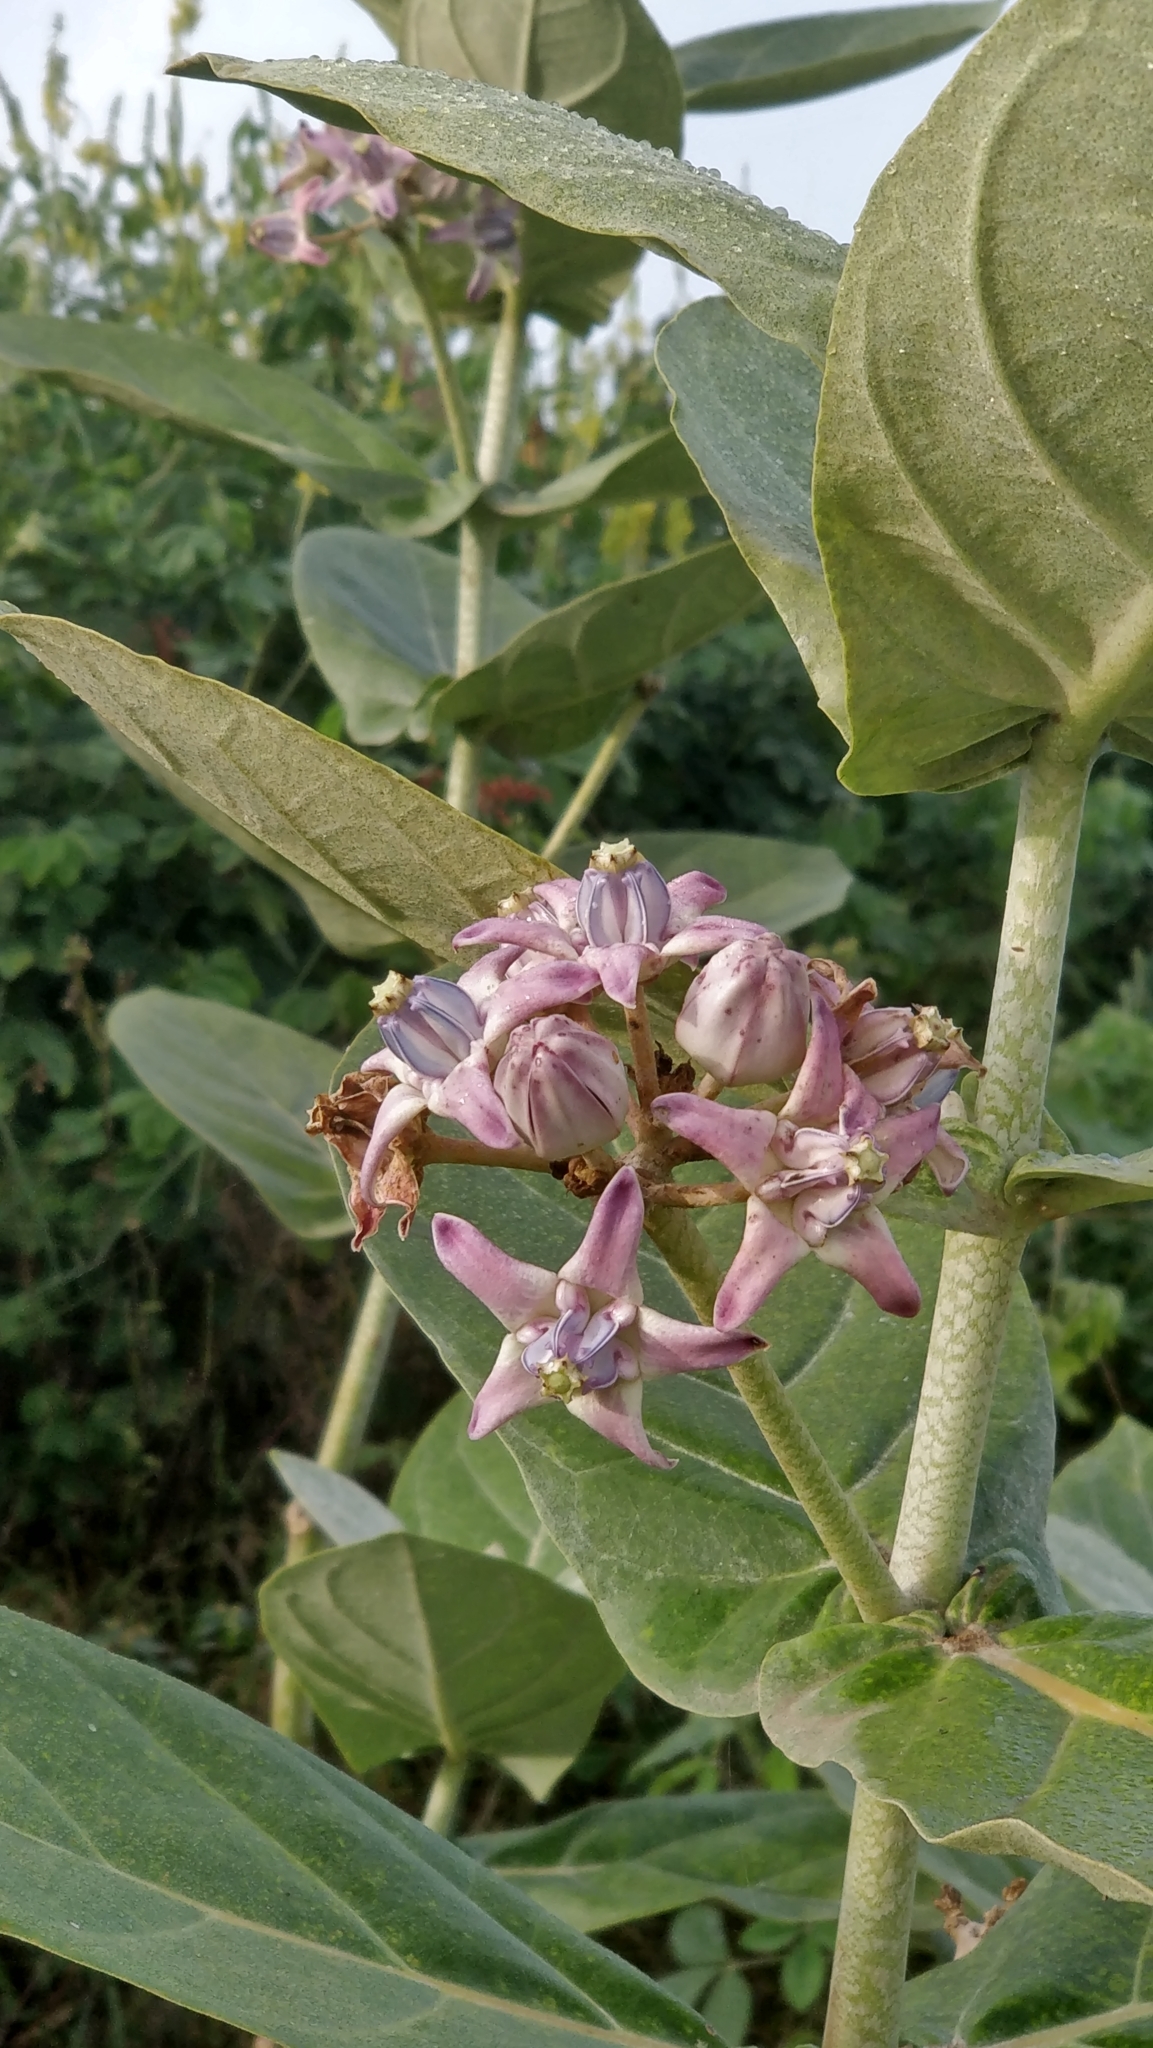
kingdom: Plantae
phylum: Tracheophyta
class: Magnoliopsida
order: Gentianales
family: Apocynaceae
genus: Calotropis
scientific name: Calotropis gigantea
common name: Crown flower
